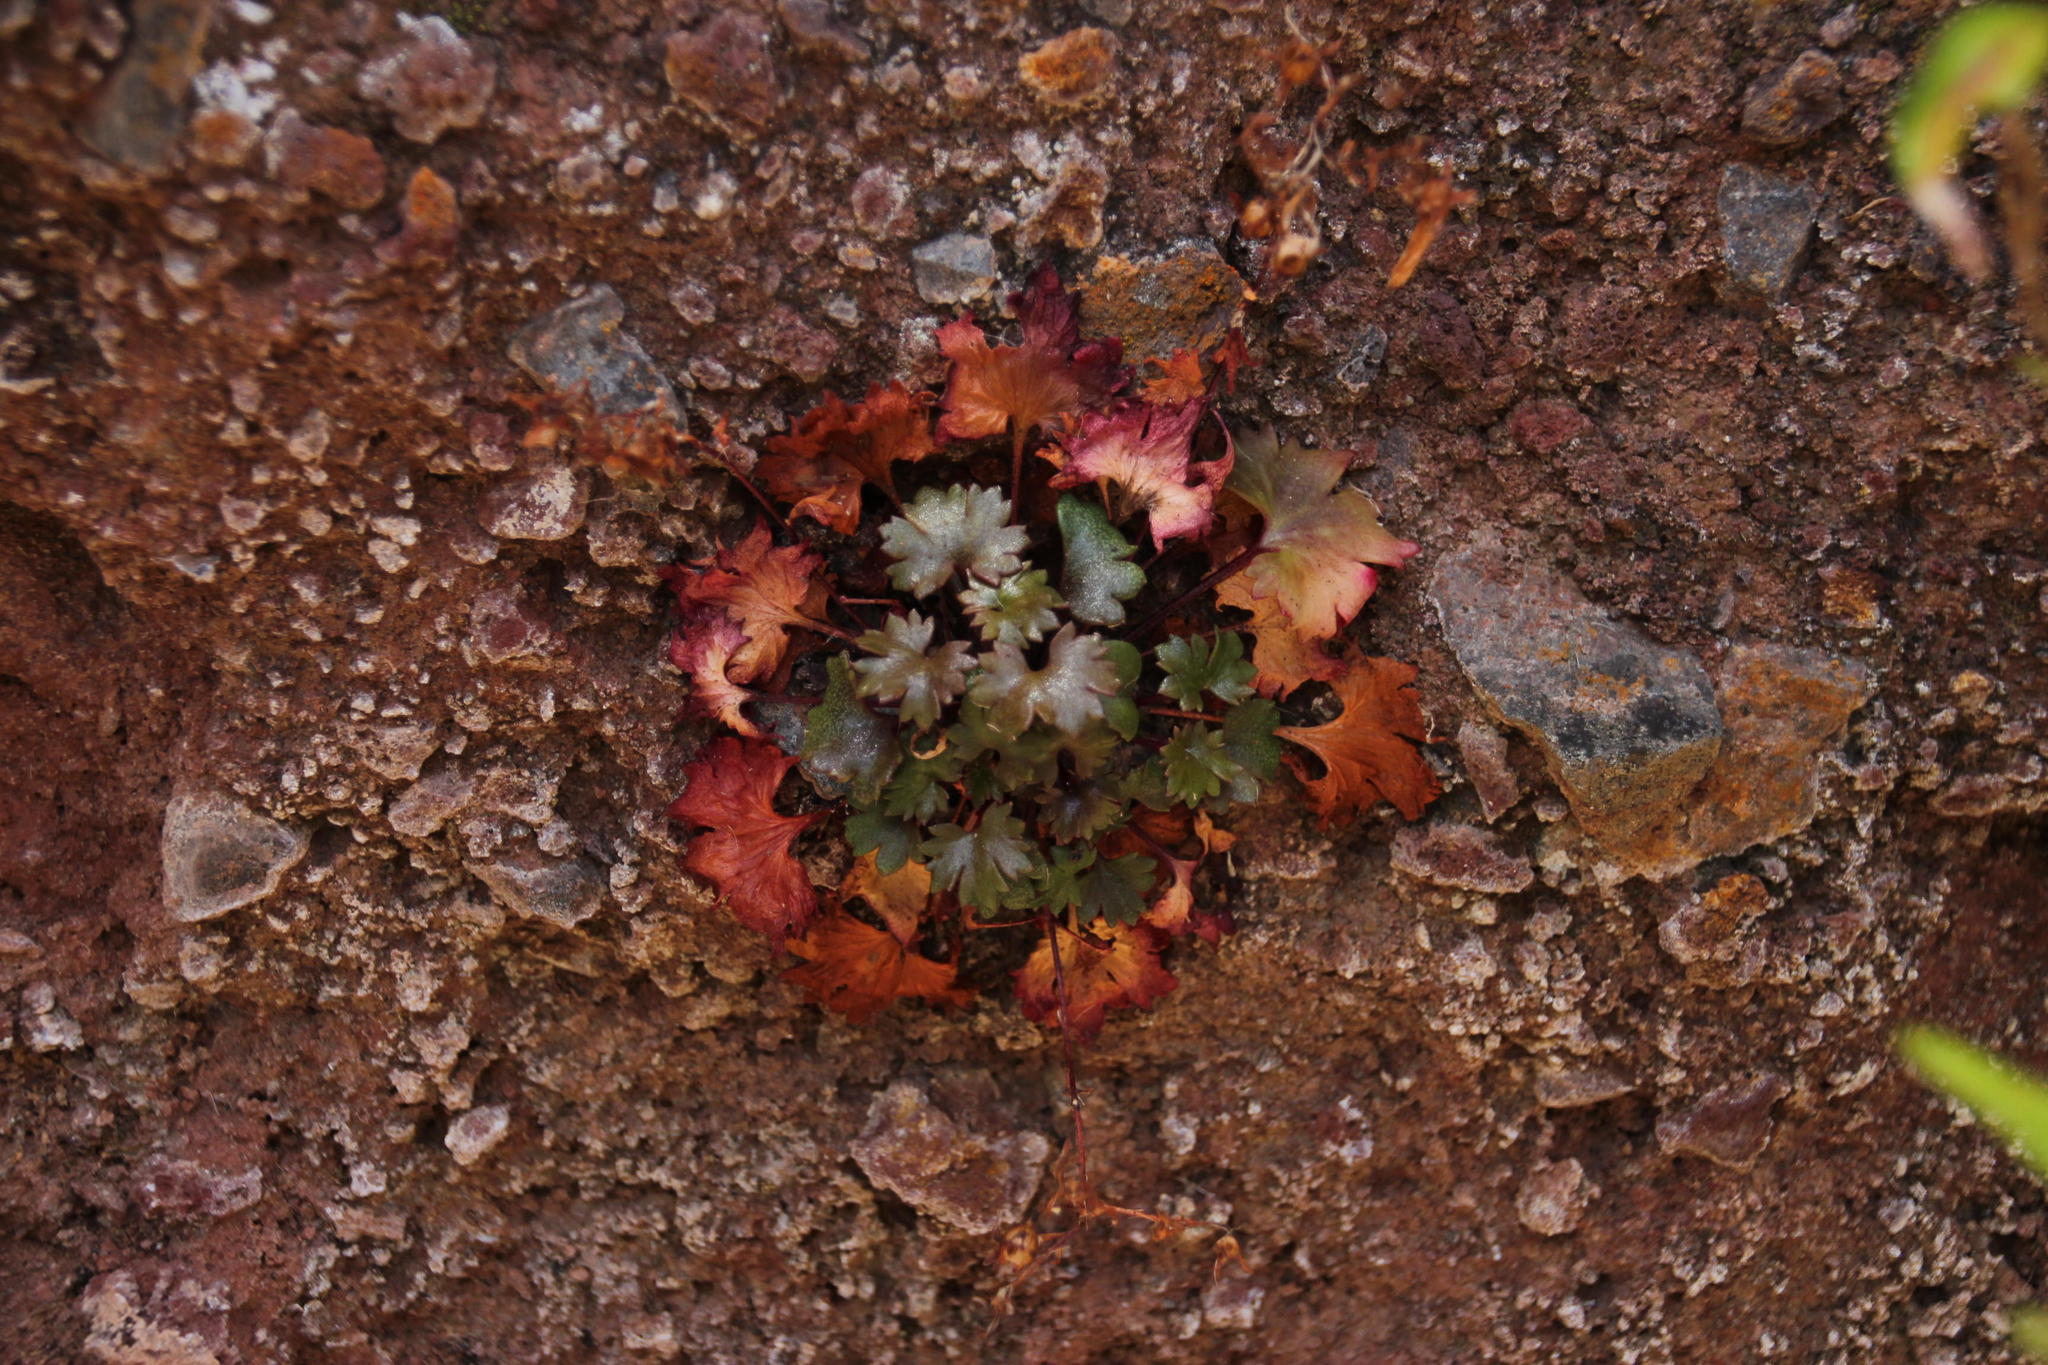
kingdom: Plantae
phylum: Tracheophyta
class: Magnoliopsida
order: Saxifragales
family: Saxifragaceae
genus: Saxifraga
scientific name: Saxifraga maderensis
